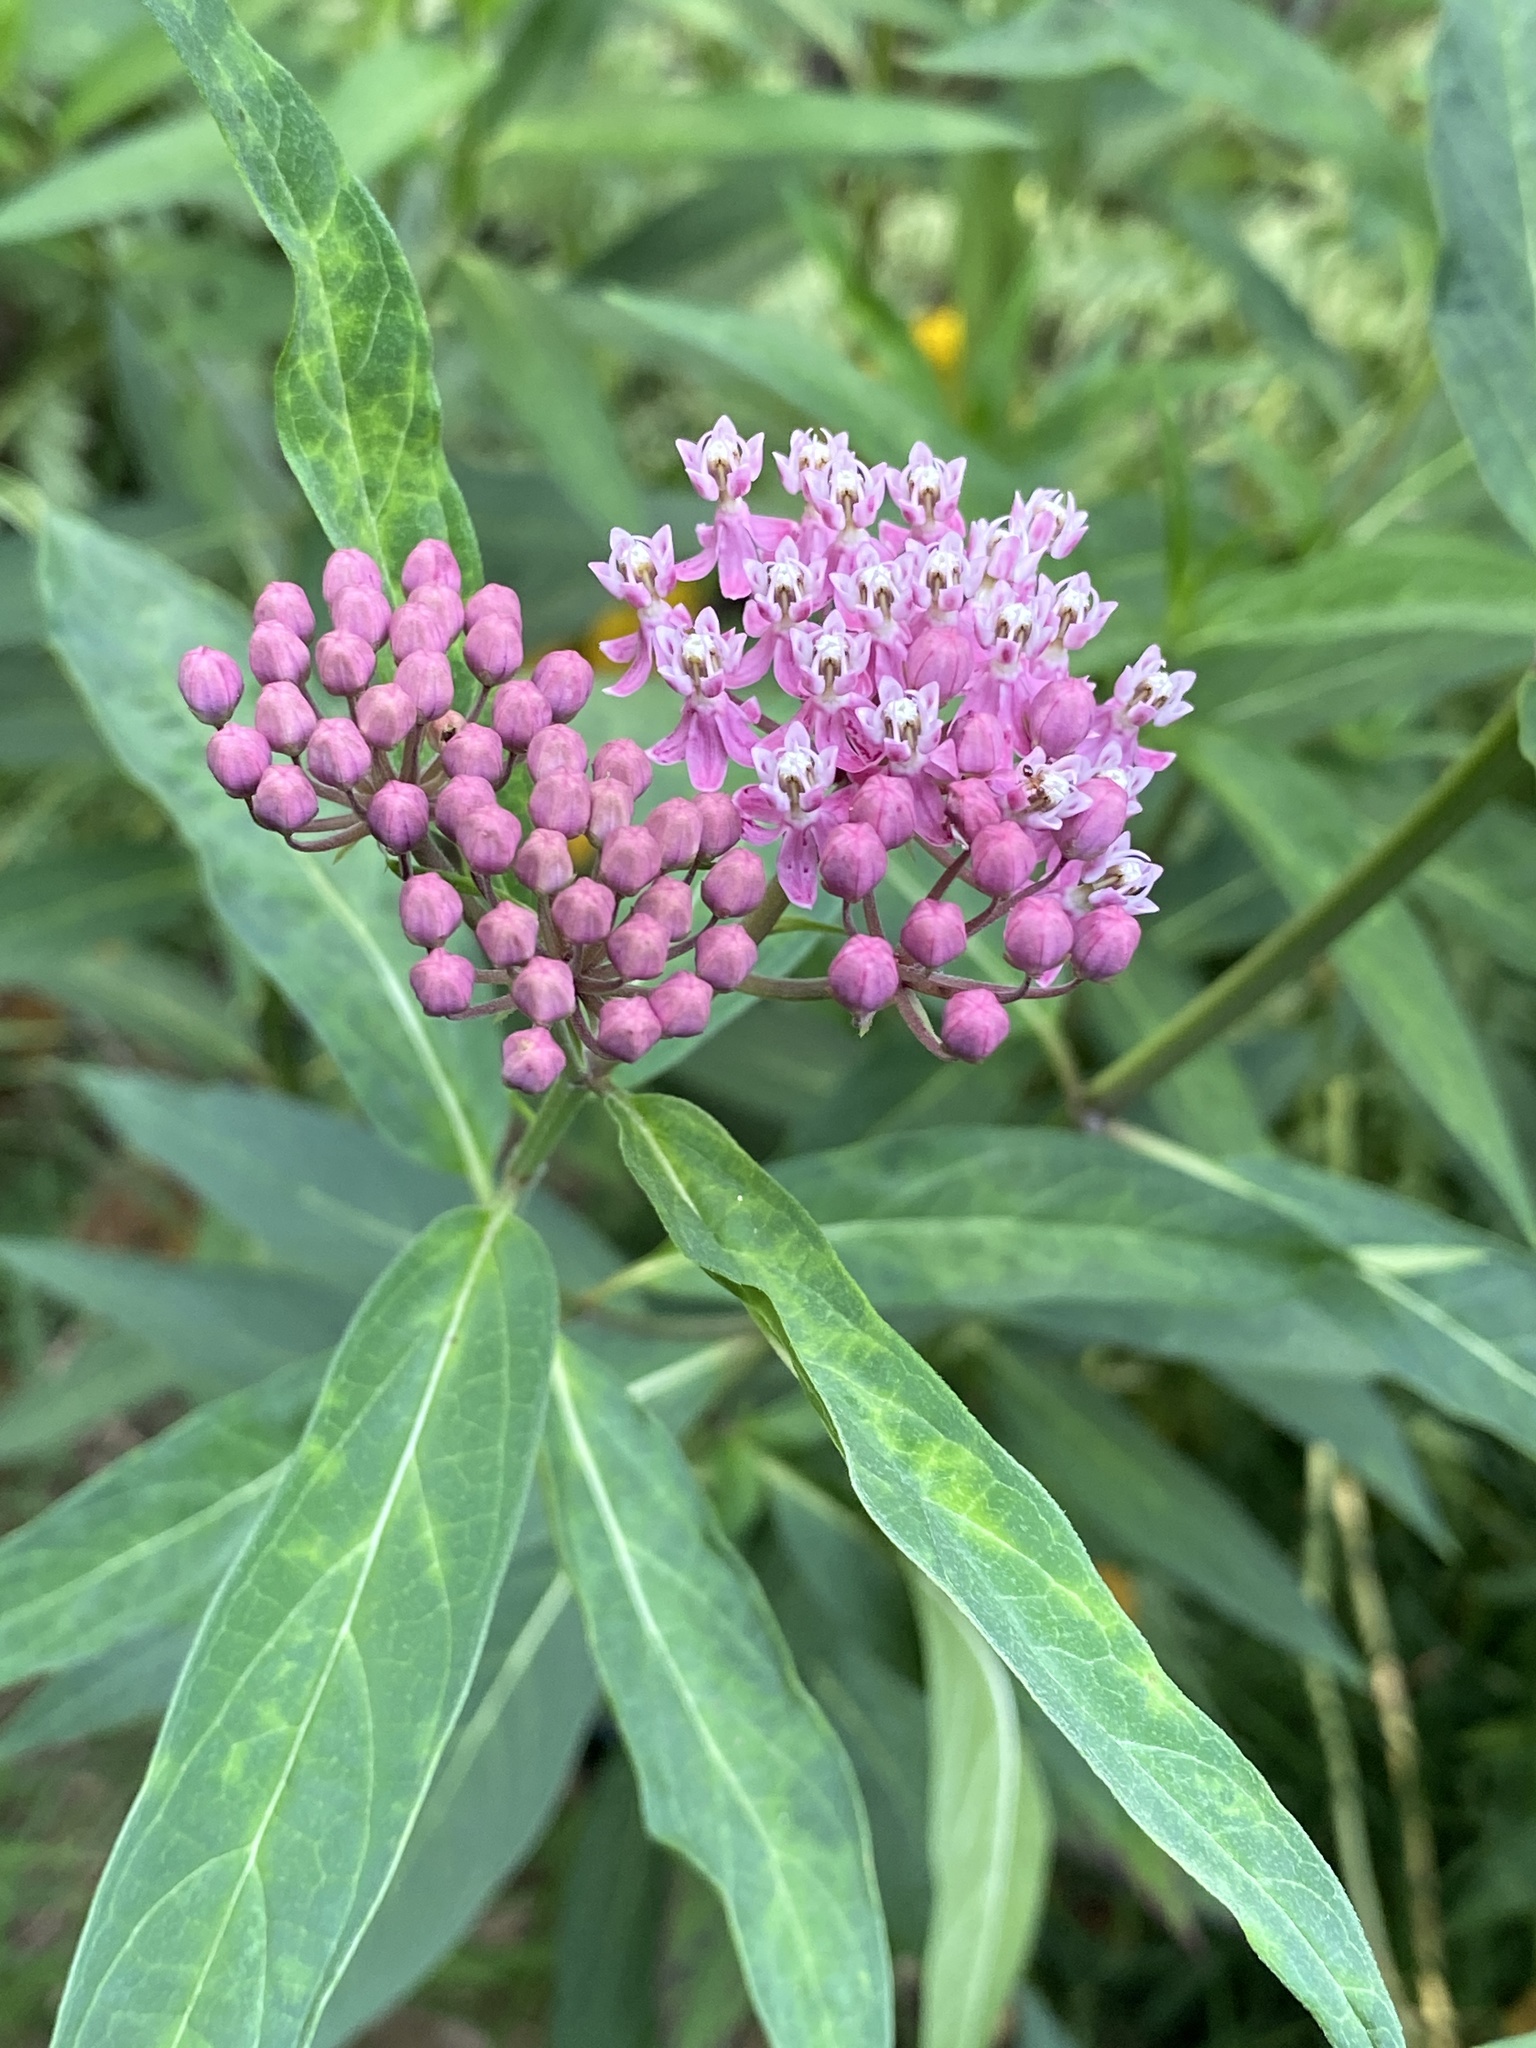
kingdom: Plantae
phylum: Tracheophyta
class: Magnoliopsida
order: Gentianales
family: Apocynaceae
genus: Asclepias
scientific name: Asclepias incarnata
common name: Swamp milkweed
